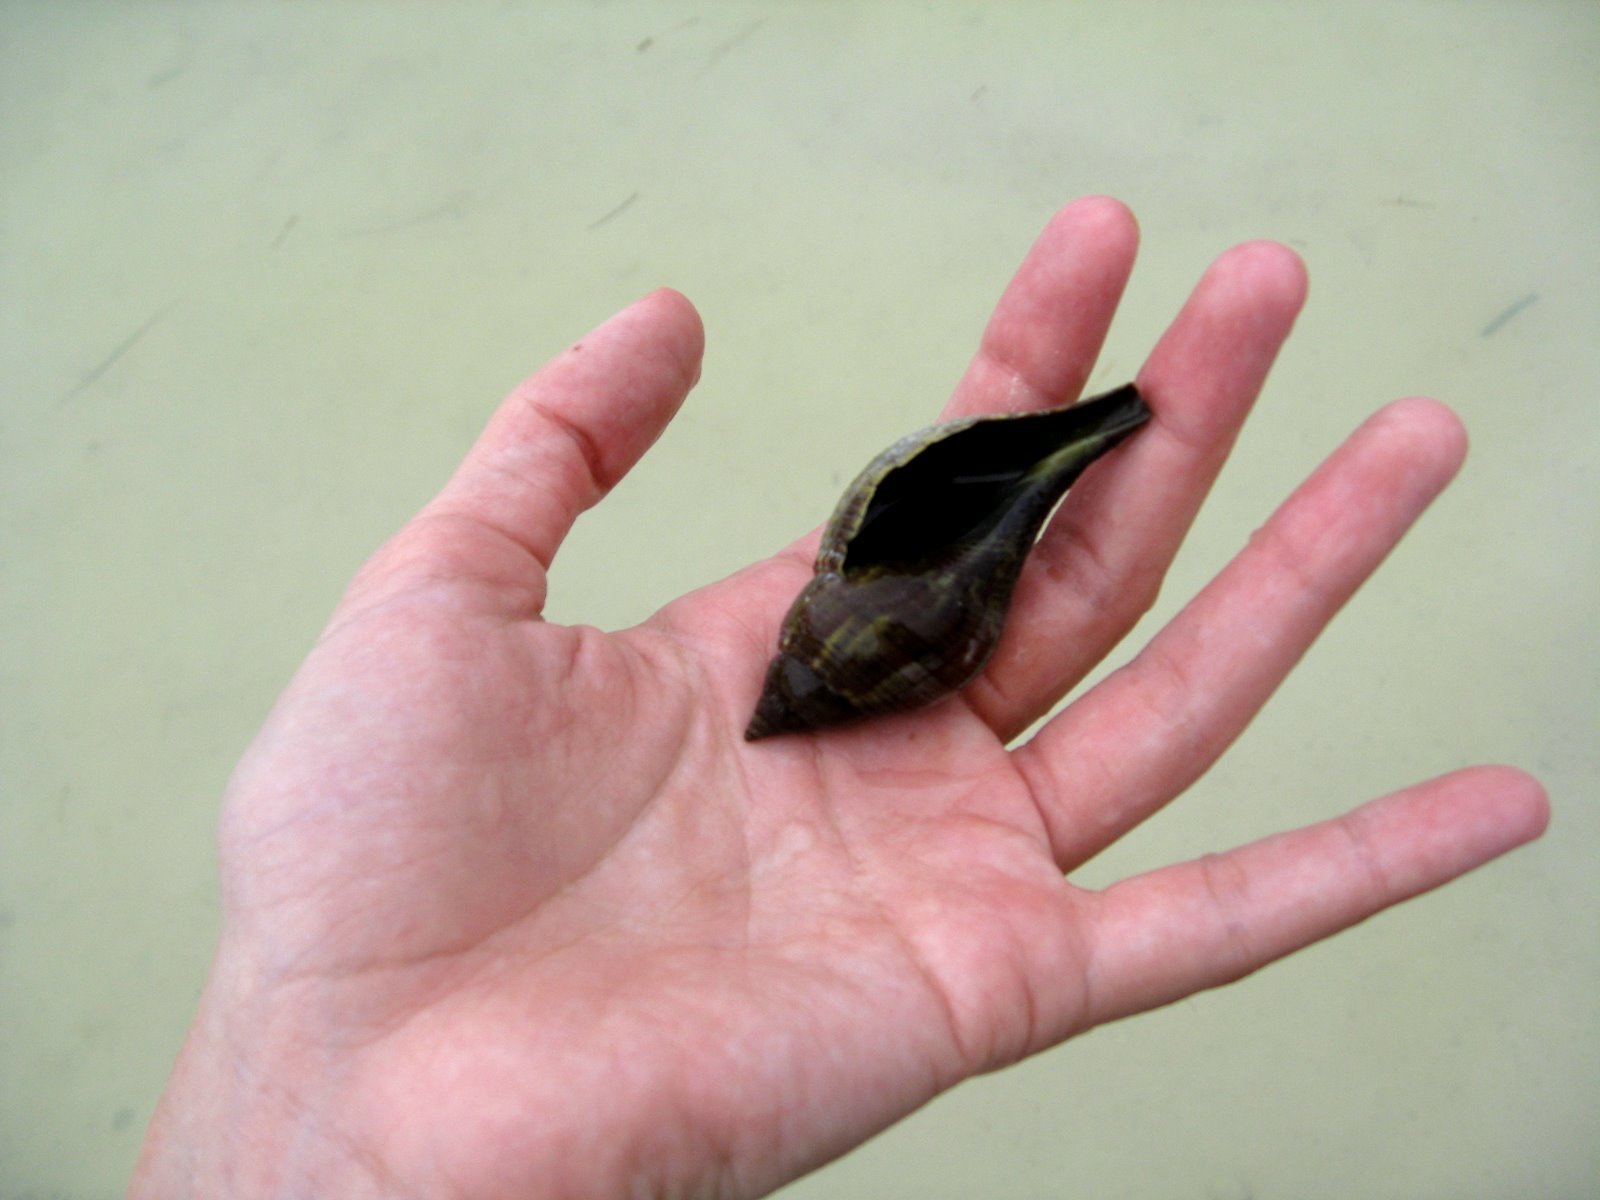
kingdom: Animalia
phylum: Mollusca
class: Gastropoda
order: Neogastropoda
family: Fasciolariidae
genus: Fasciolaria
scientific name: Fasciolaria tulipa
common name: True tulip
